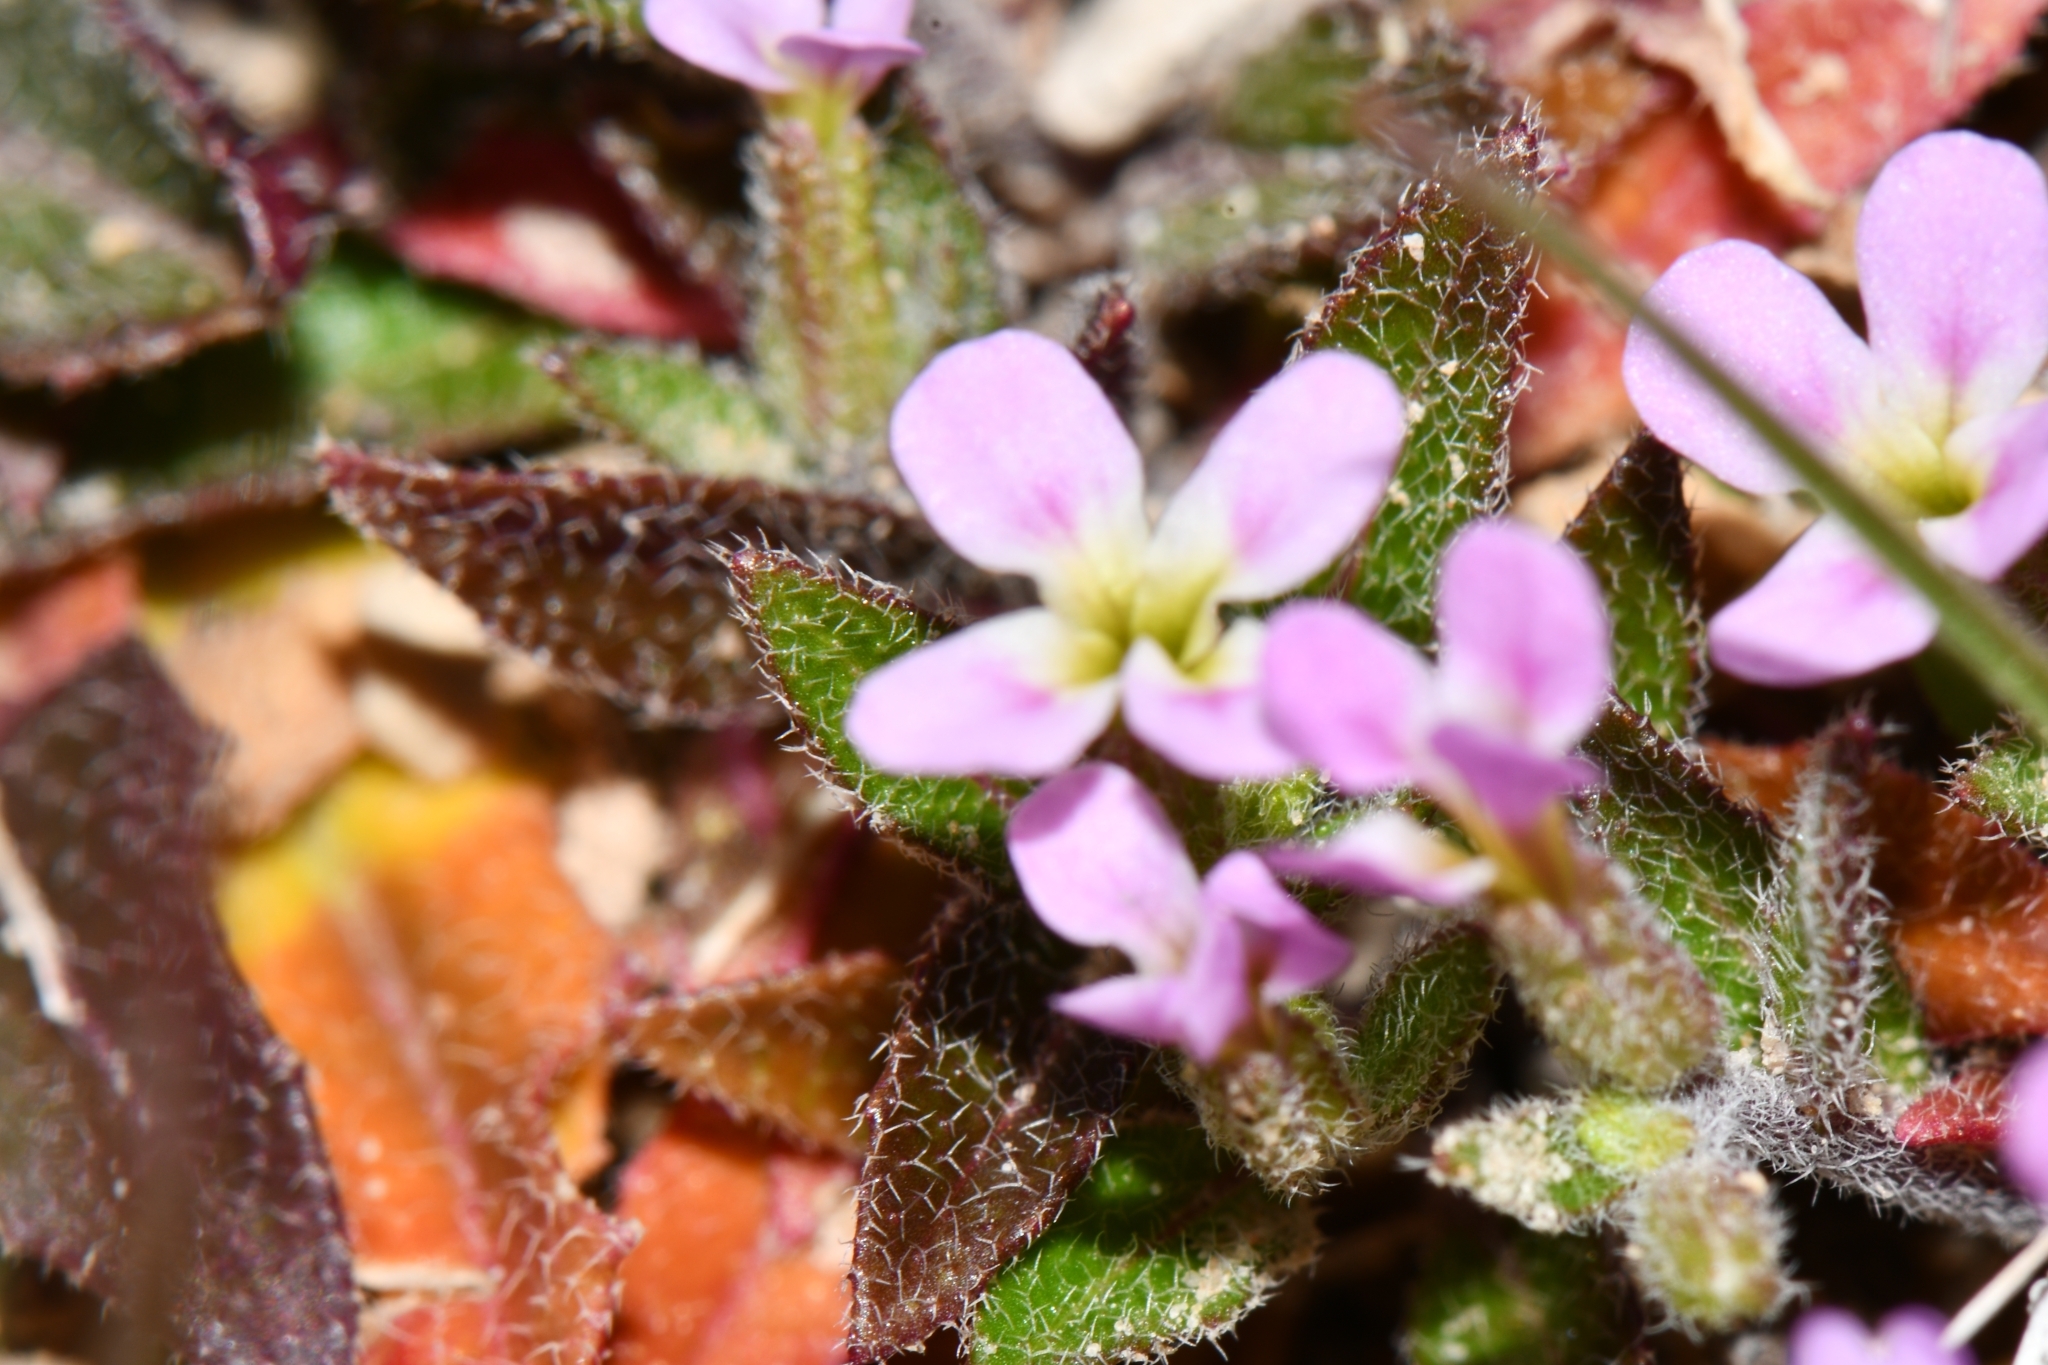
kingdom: Plantae
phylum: Tracheophyta
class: Magnoliopsida
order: Brassicales
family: Brassicaceae
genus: Strigosella
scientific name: Strigosella africana
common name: African mustard
